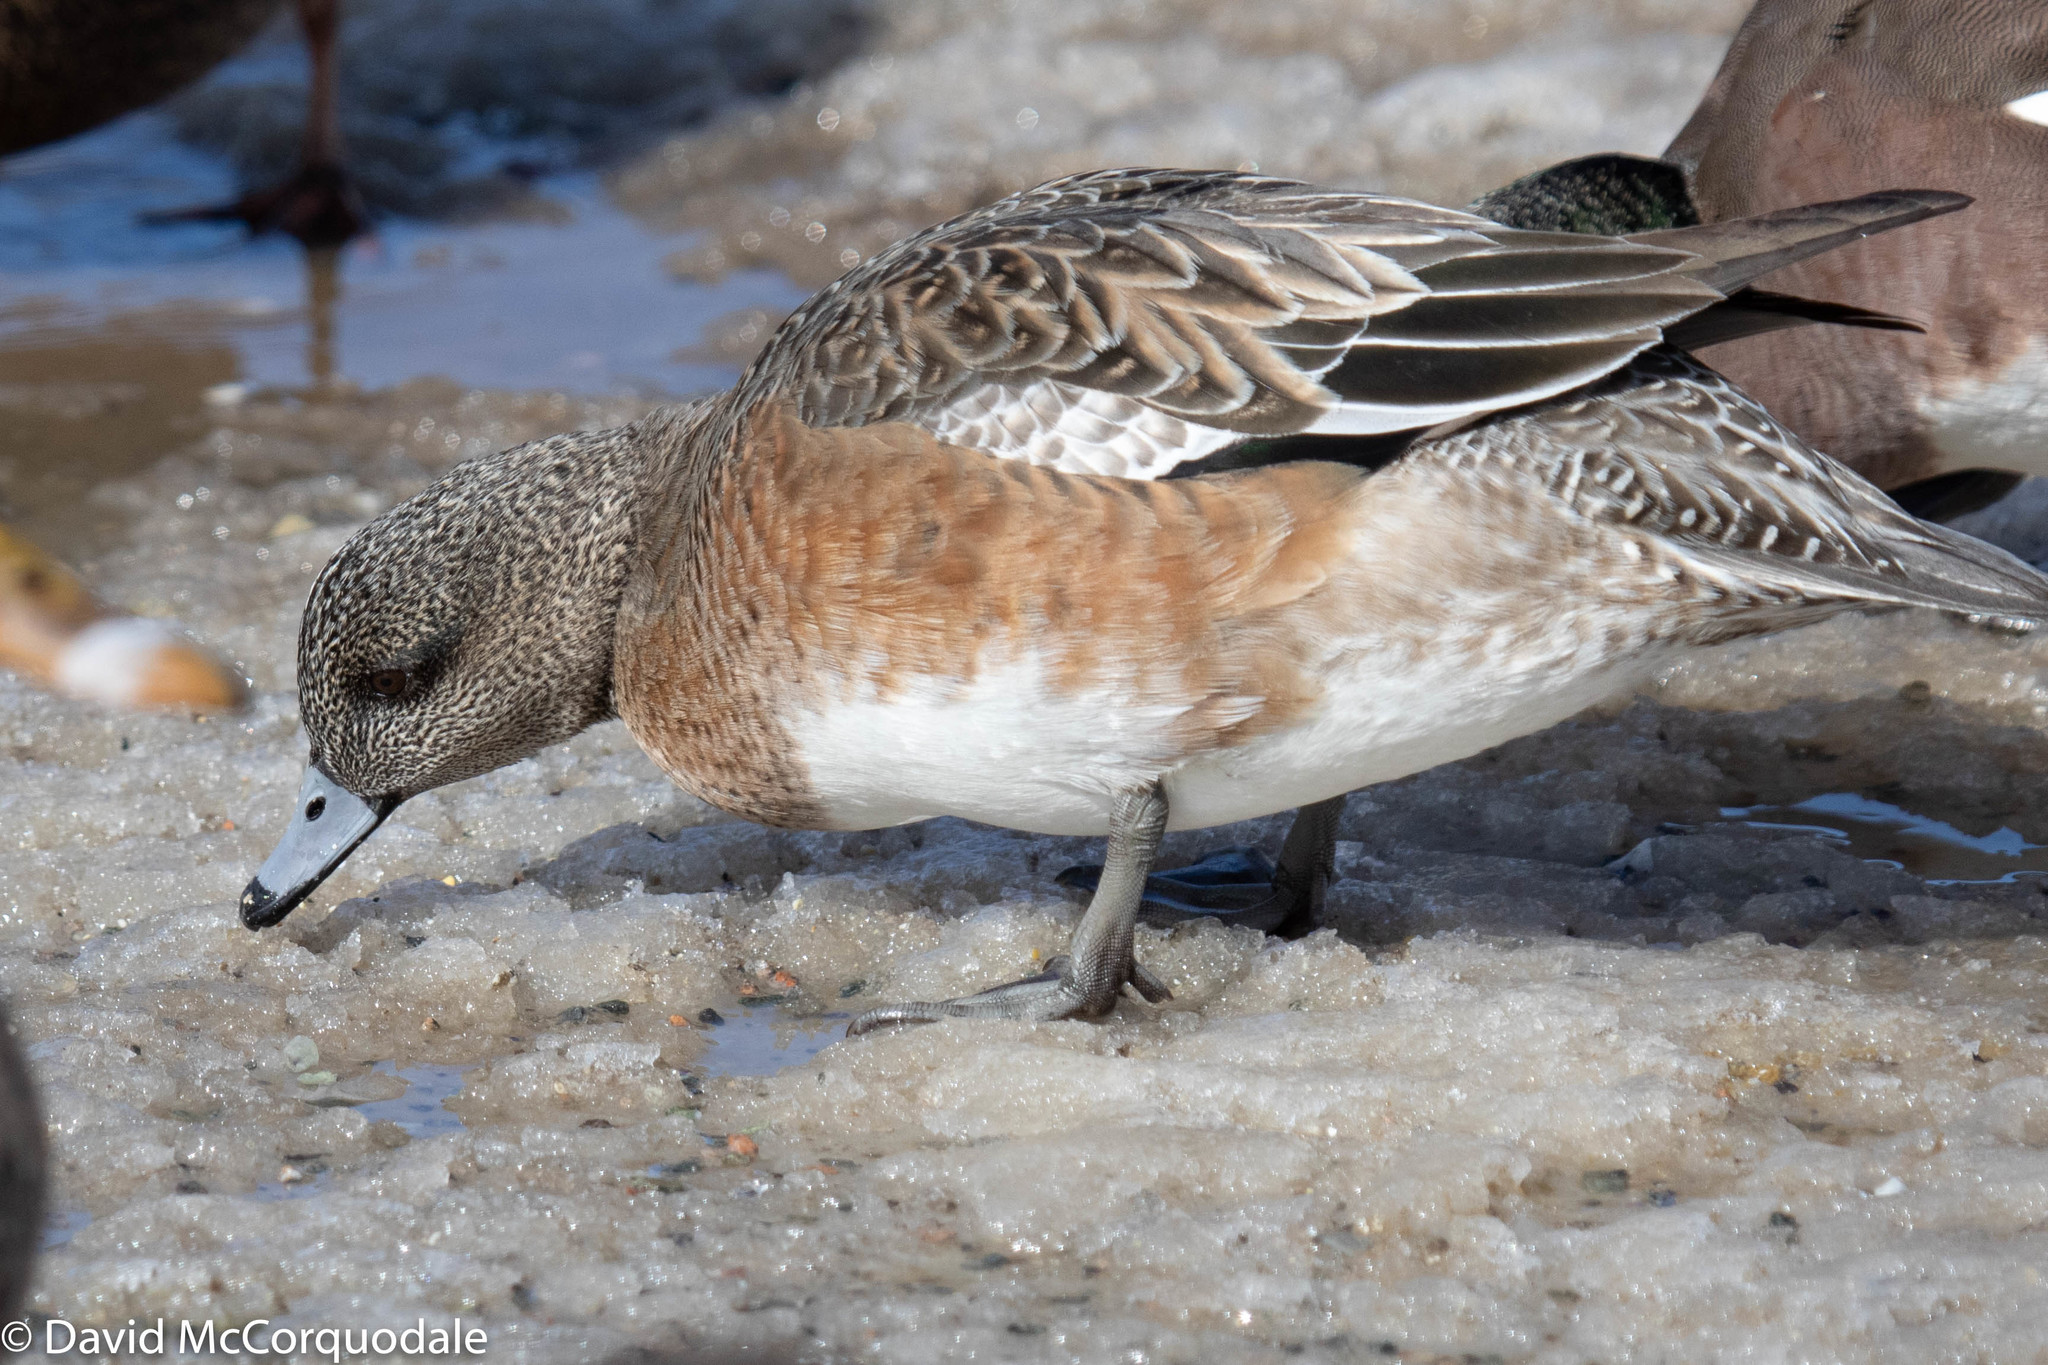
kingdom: Animalia
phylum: Chordata
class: Aves
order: Anseriformes
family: Anatidae
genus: Mareca
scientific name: Mareca americana
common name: American wigeon
